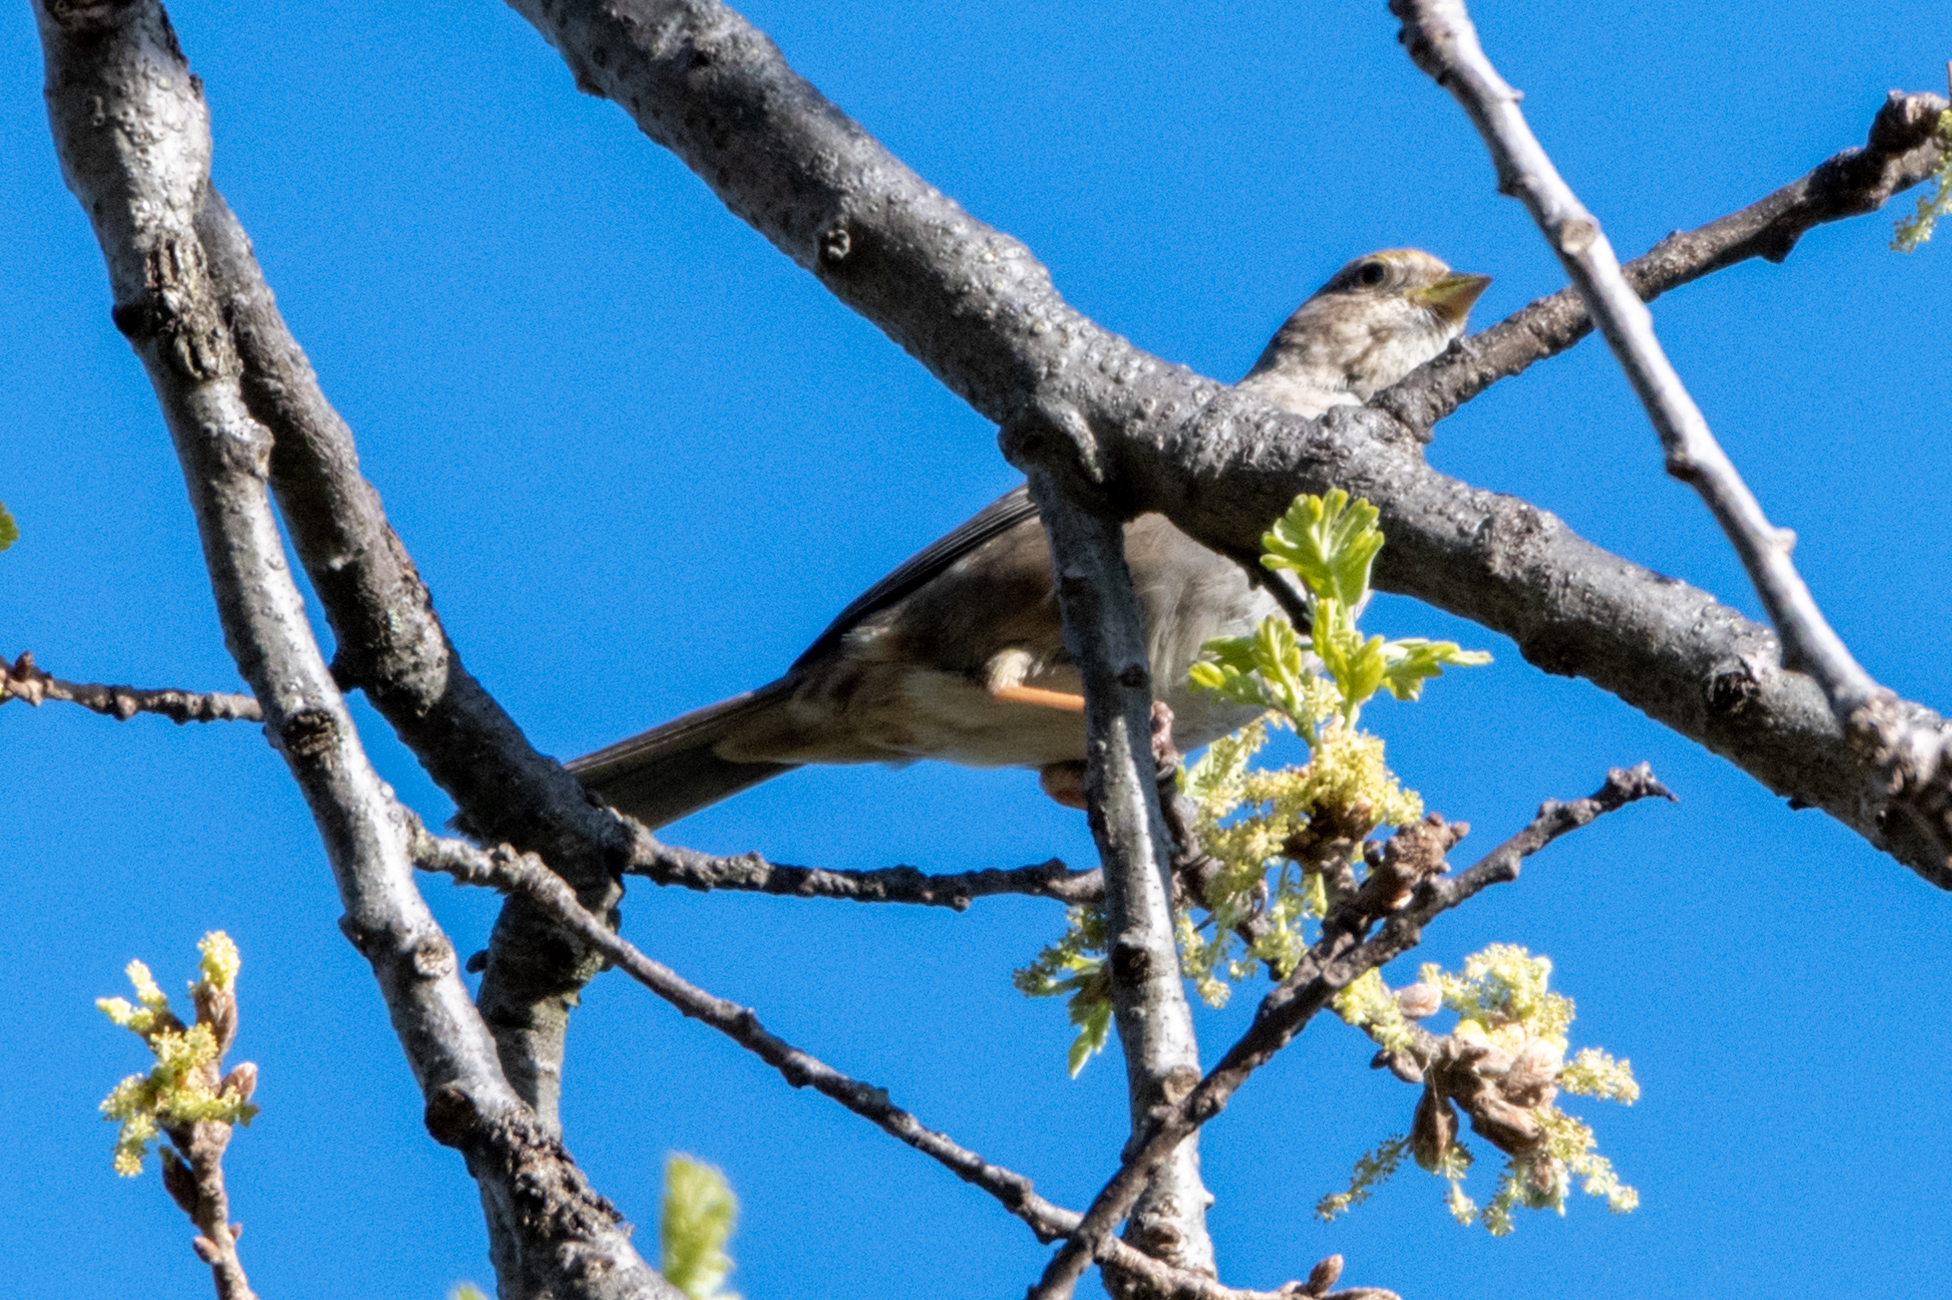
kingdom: Animalia
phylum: Chordata
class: Aves
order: Passeriformes
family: Passerellidae
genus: Zonotrichia
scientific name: Zonotrichia atricapilla
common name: Golden-crowned sparrow
